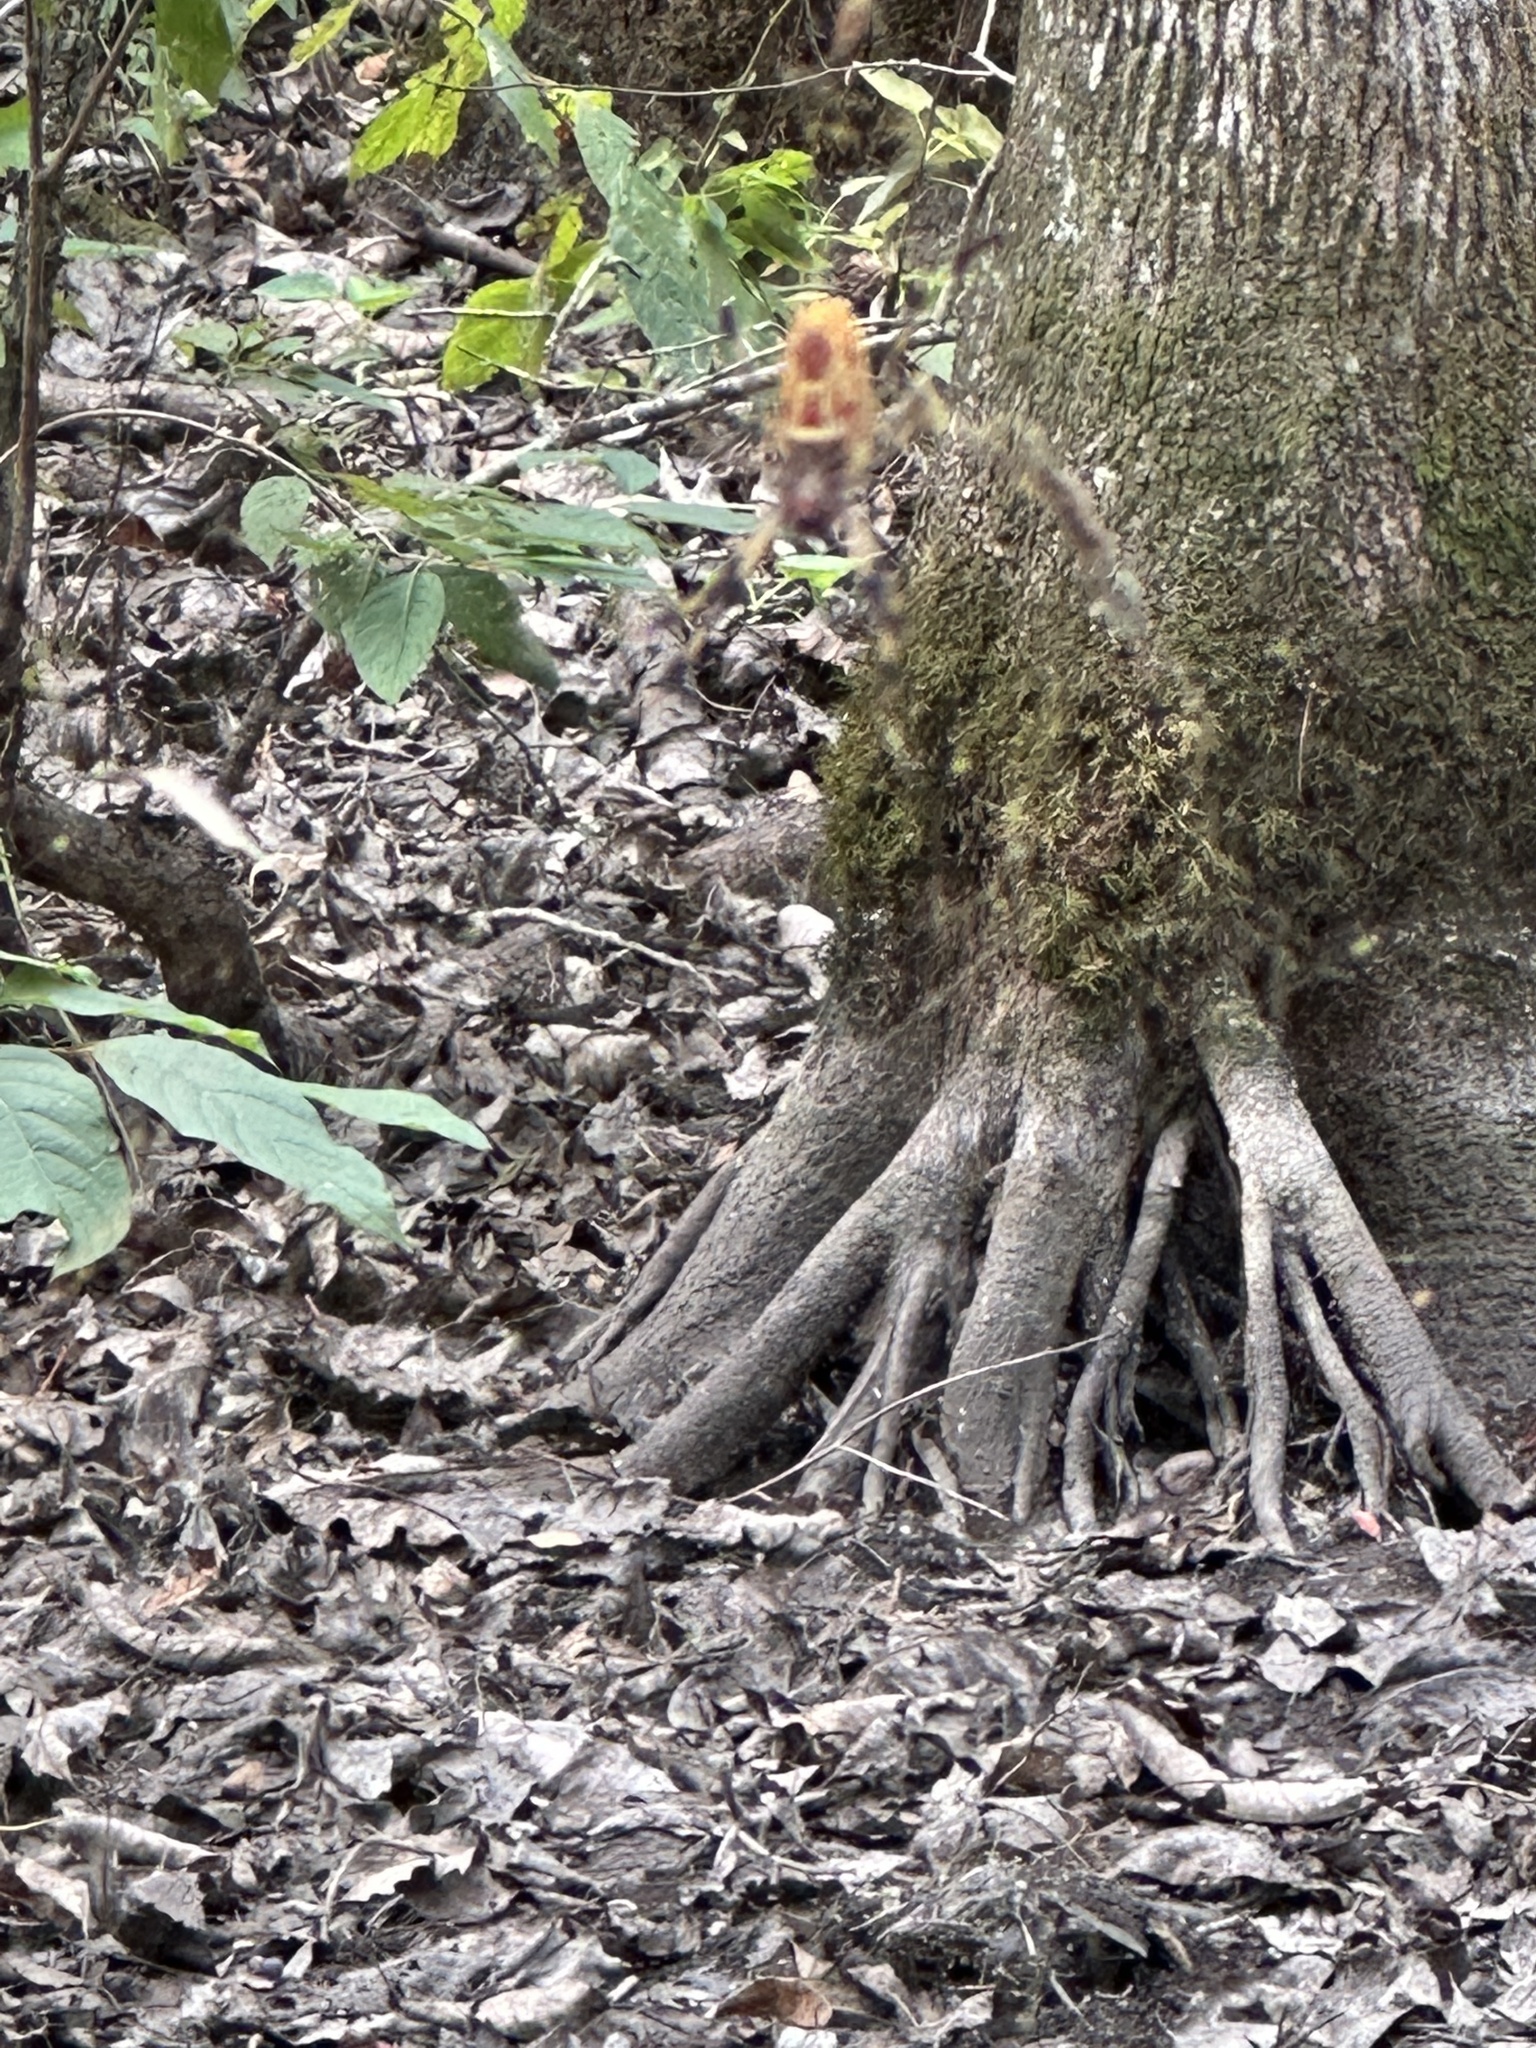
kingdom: Animalia
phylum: Arthropoda
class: Arachnida
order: Araneae
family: Araneidae
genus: Trichonephila
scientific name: Trichonephila clavipes
